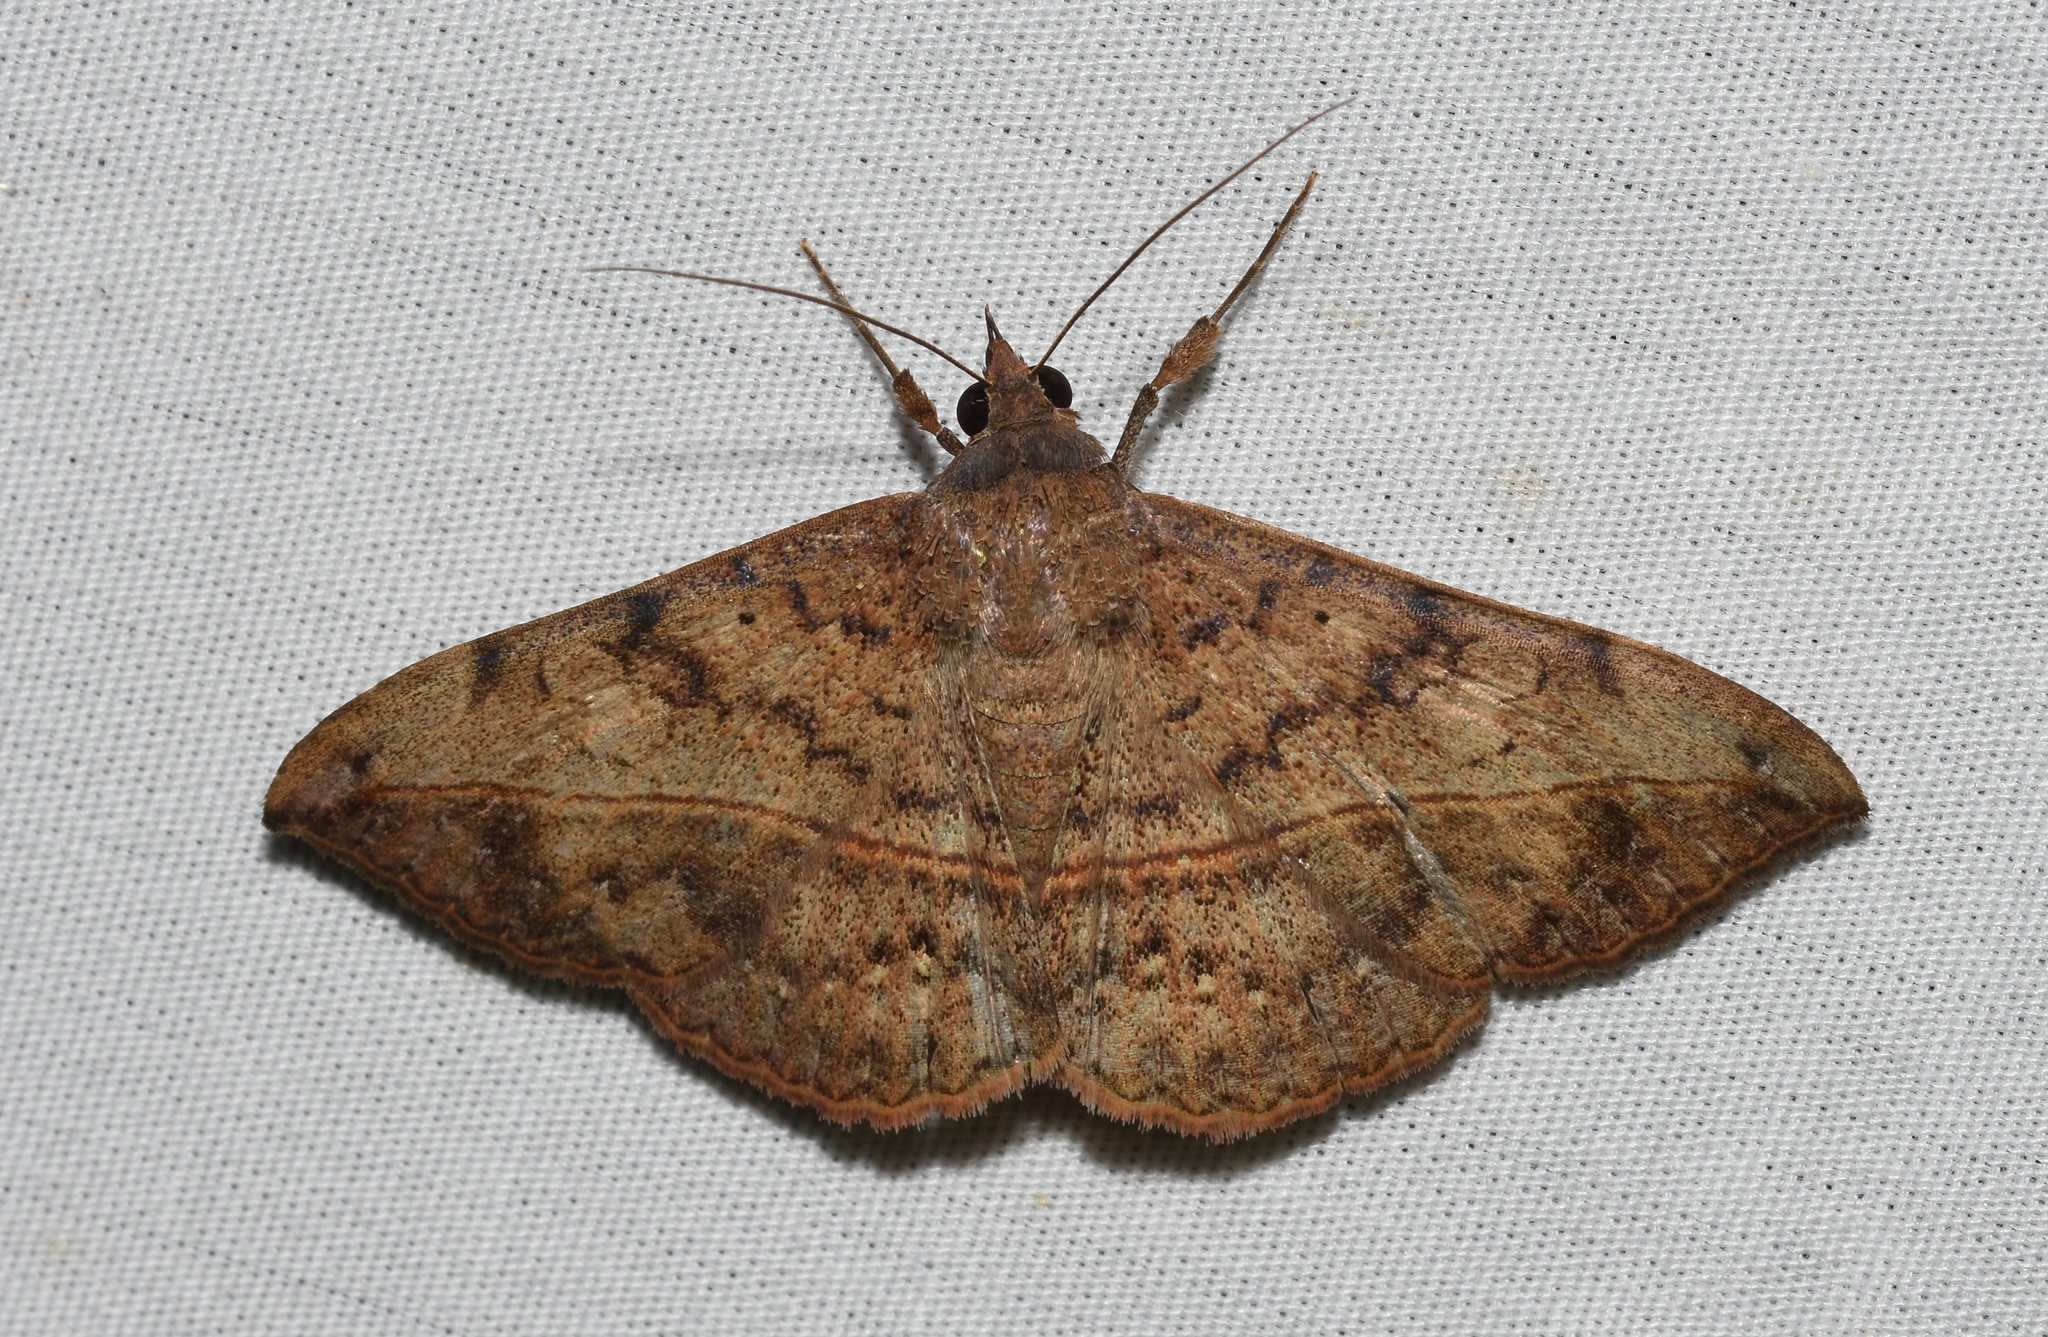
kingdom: Animalia
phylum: Arthropoda
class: Insecta
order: Lepidoptera
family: Erebidae
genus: Anticarsia
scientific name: Anticarsia gemmatalis
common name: Cutworm moth
